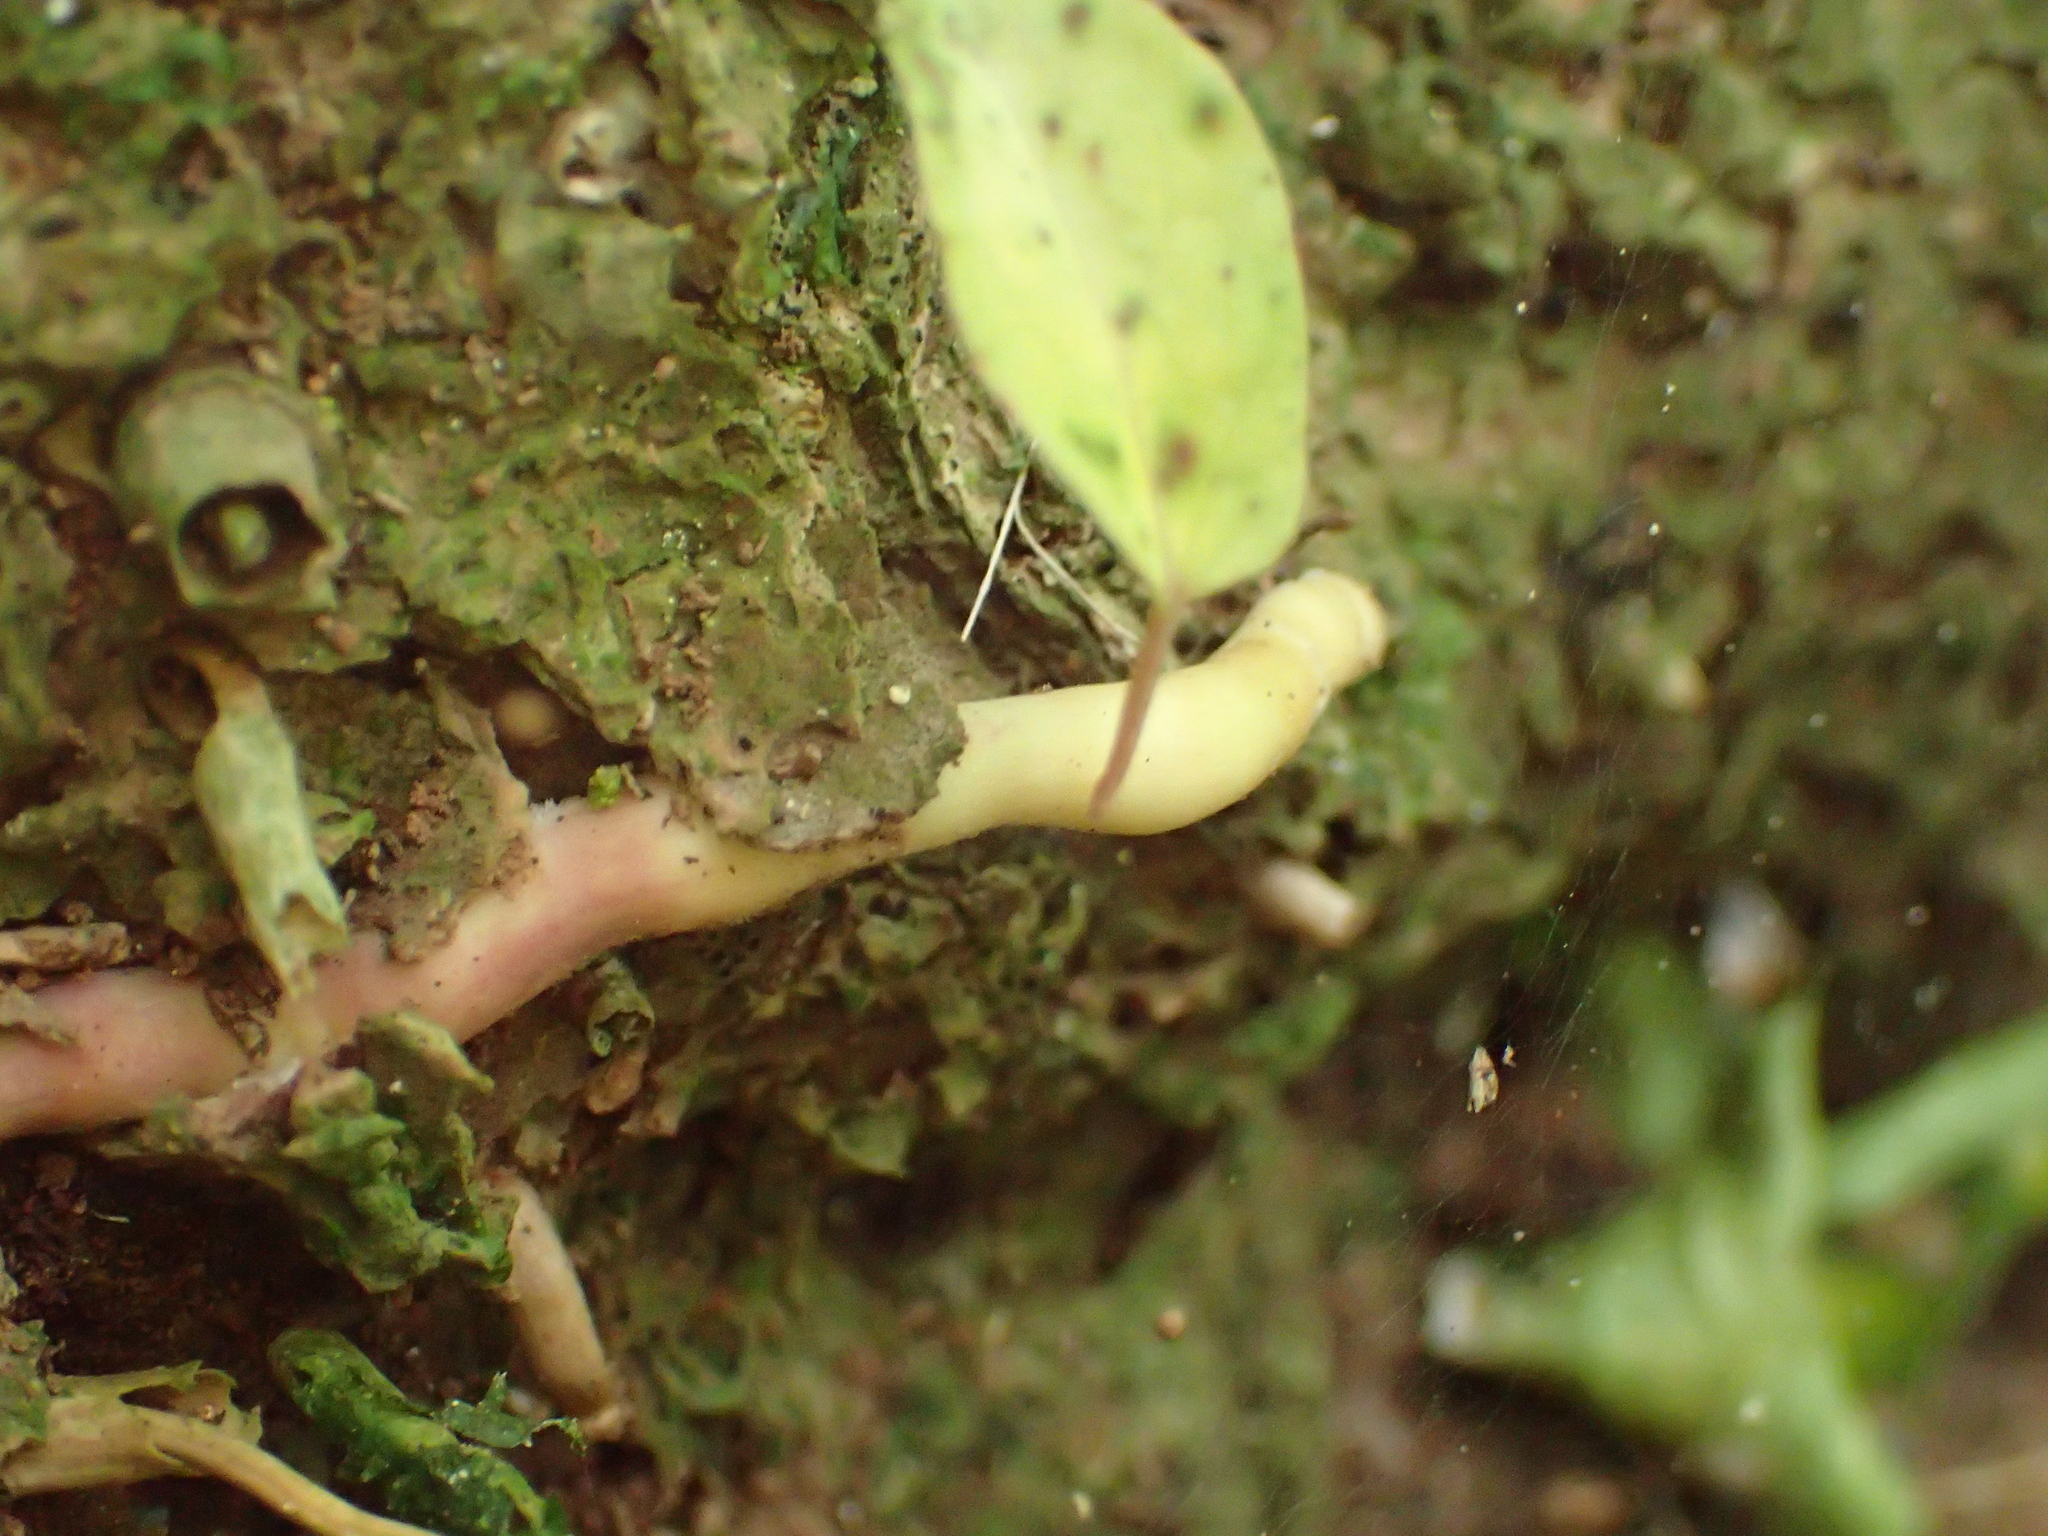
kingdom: Plantae
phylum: Tracheophyta
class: Liliopsida
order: Asparagales
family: Asparagaceae
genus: Cordyline
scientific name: Cordyline australis
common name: Cabbage-palm
